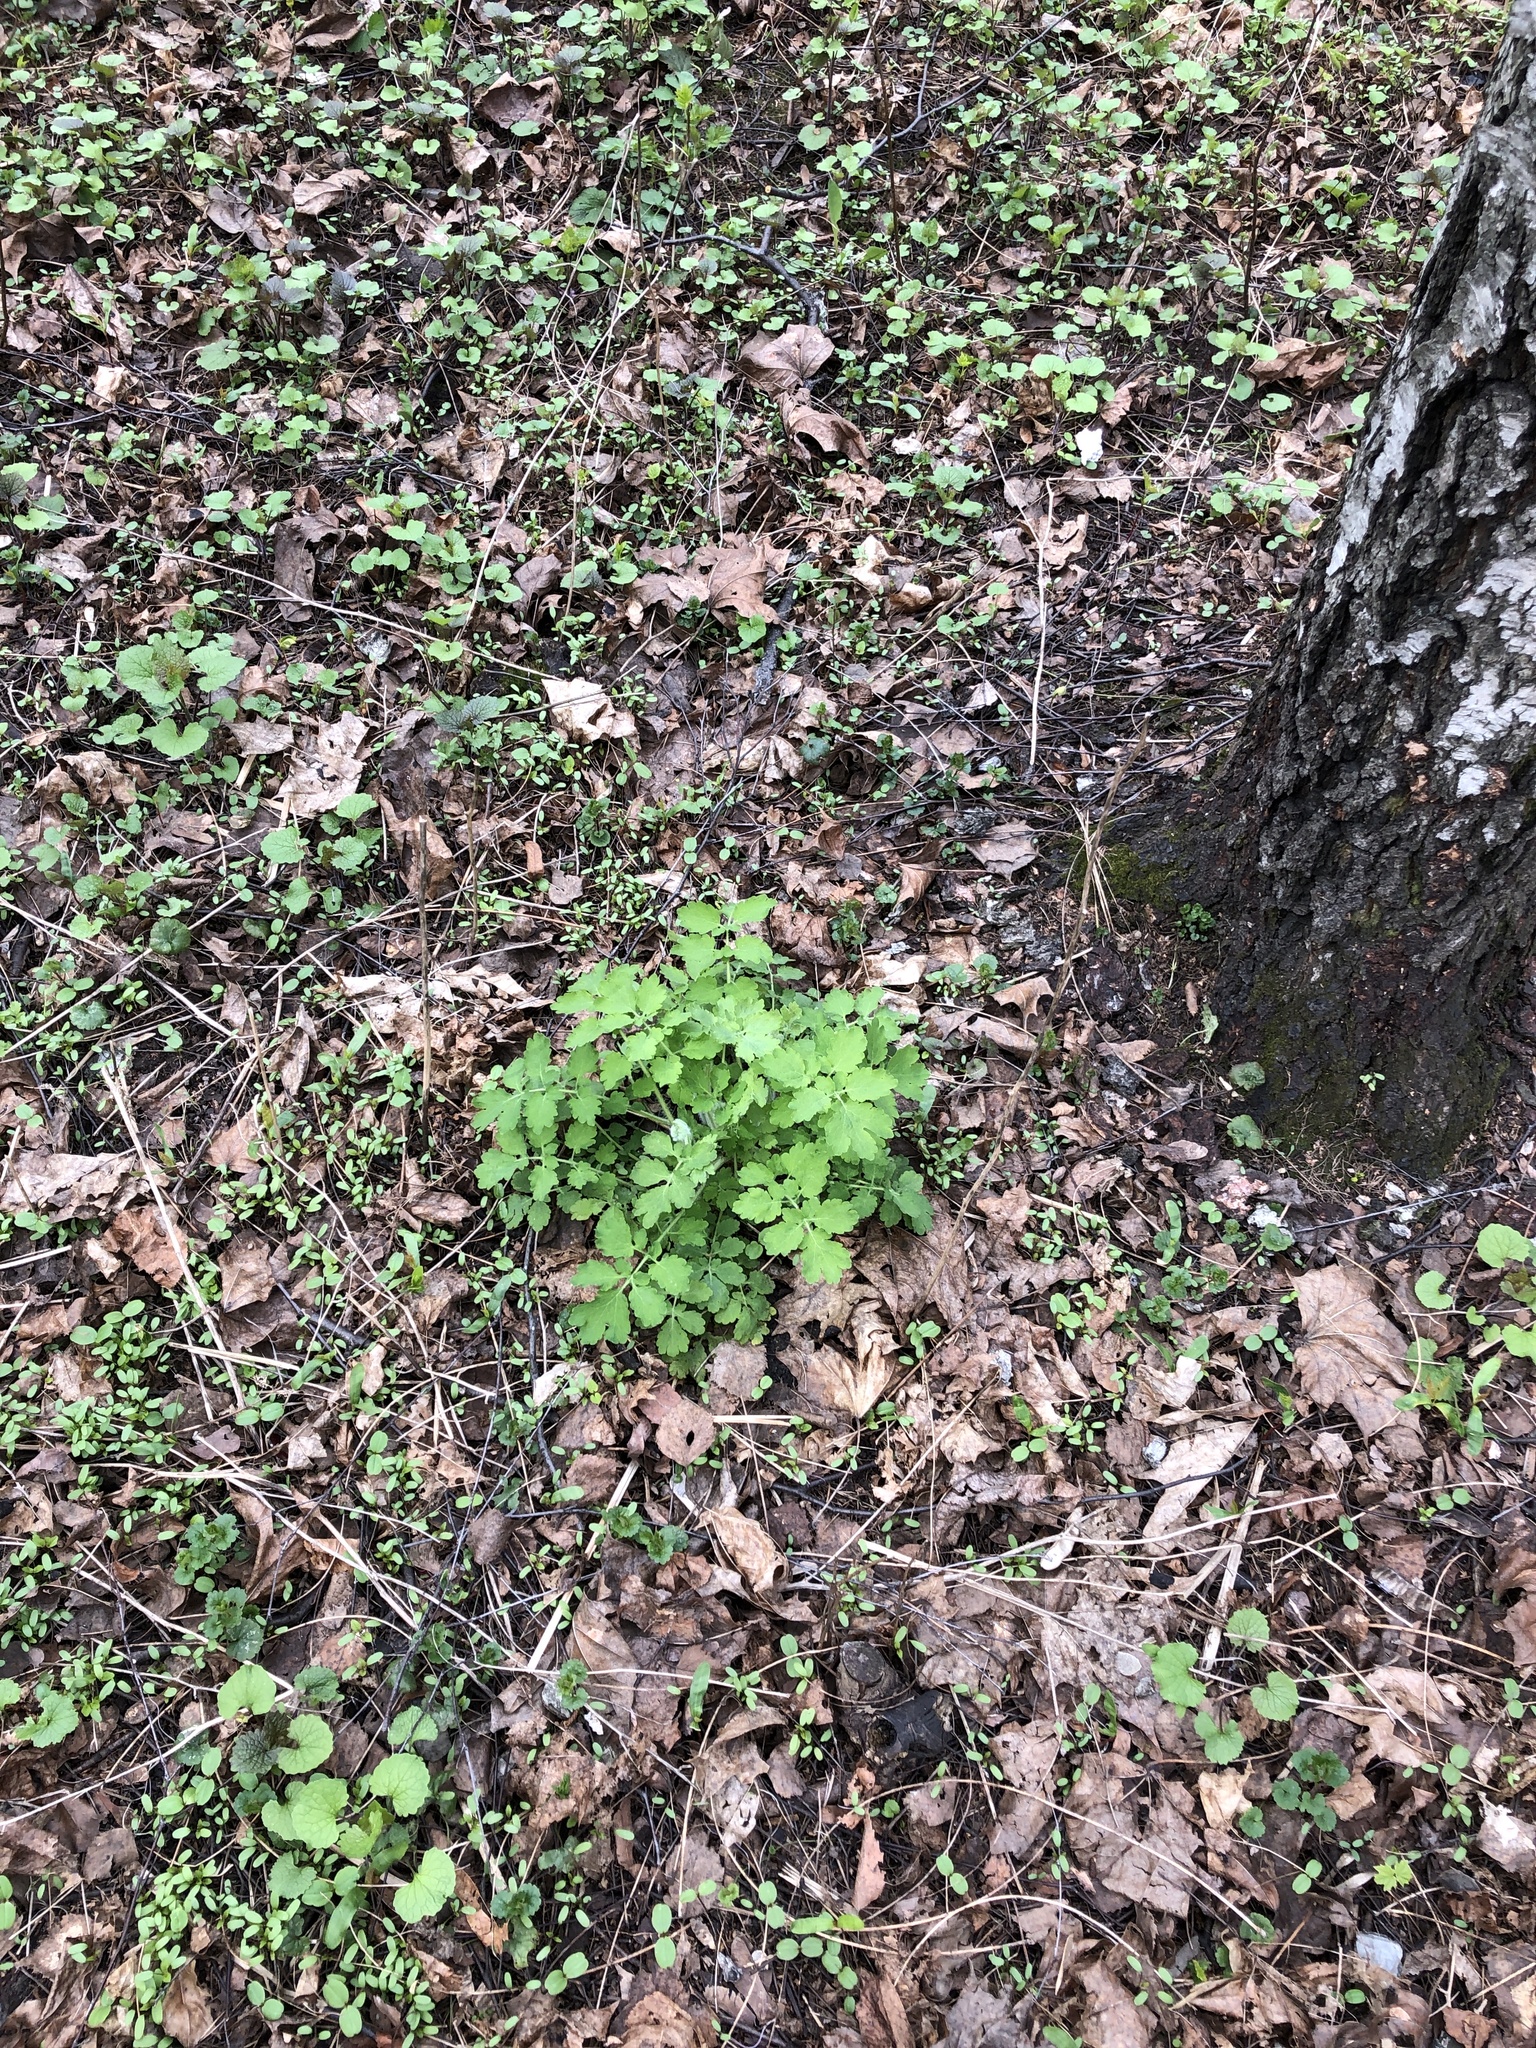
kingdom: Plantae
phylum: Tracheophyta
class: Magnoliopsida
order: Ranunculales
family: Papaveraceae
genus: Chelidonium
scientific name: Chelidonium majus
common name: Greater celandine
